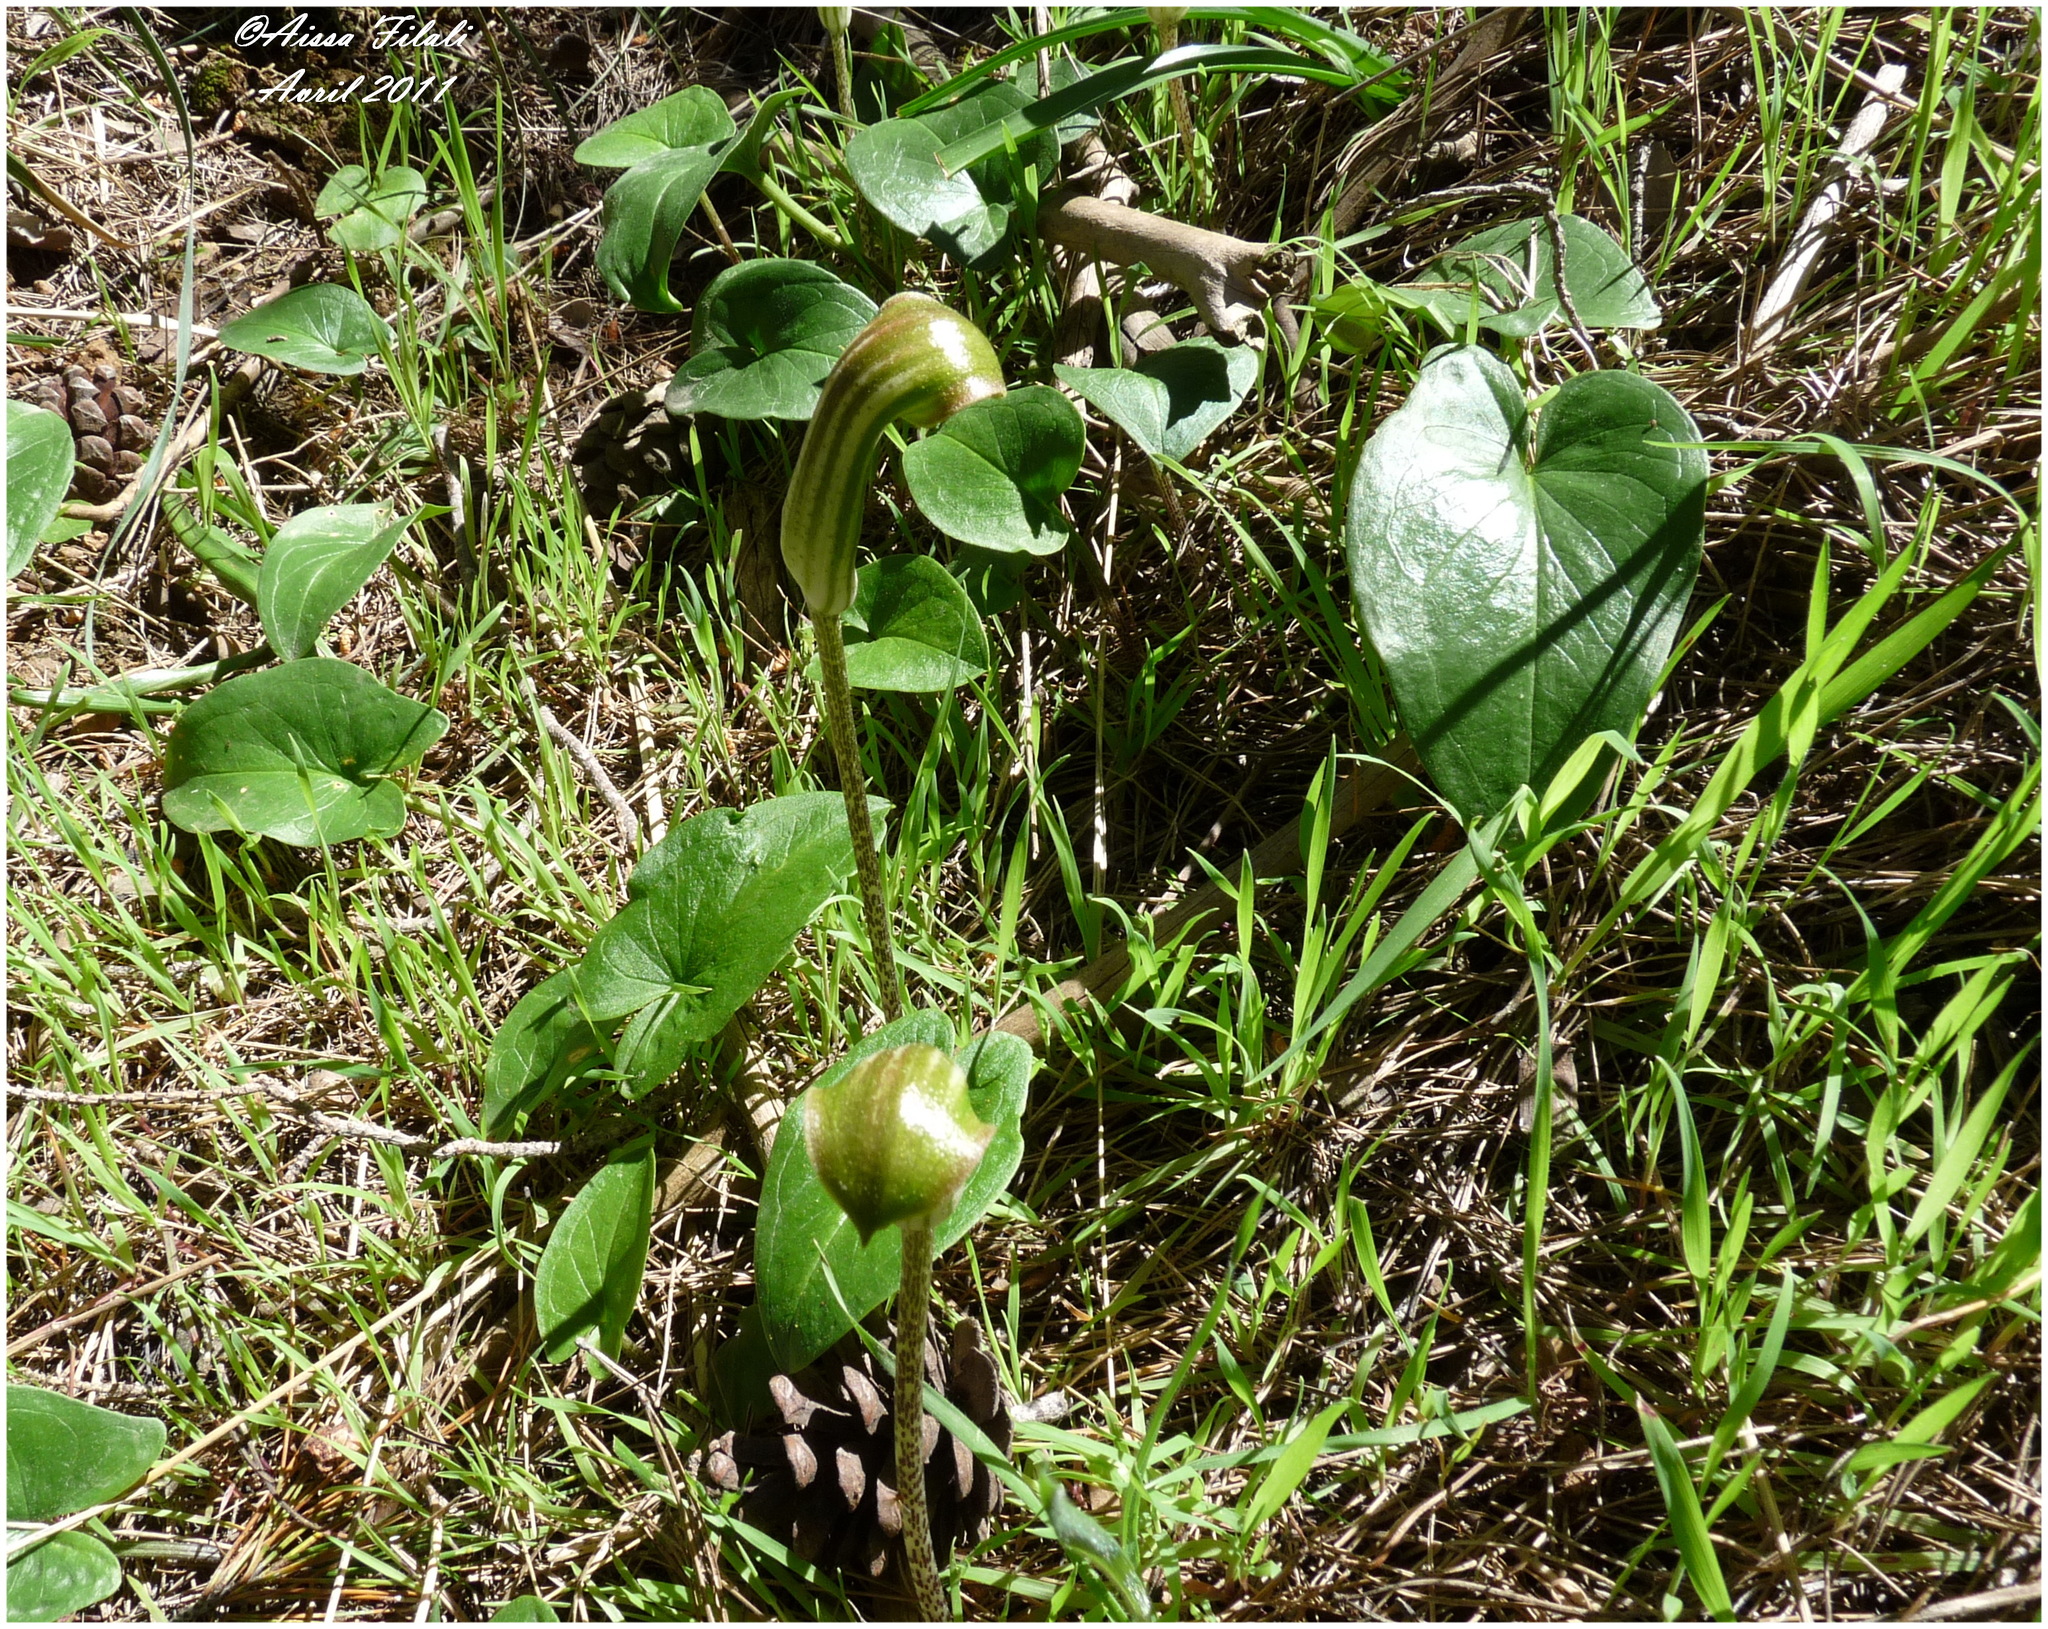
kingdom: Plantae
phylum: Tracheophyta
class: Liliopsida
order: Alismatales
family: Araceae
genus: Arisarum
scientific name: Arisarum vulgare
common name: Common arisarum
